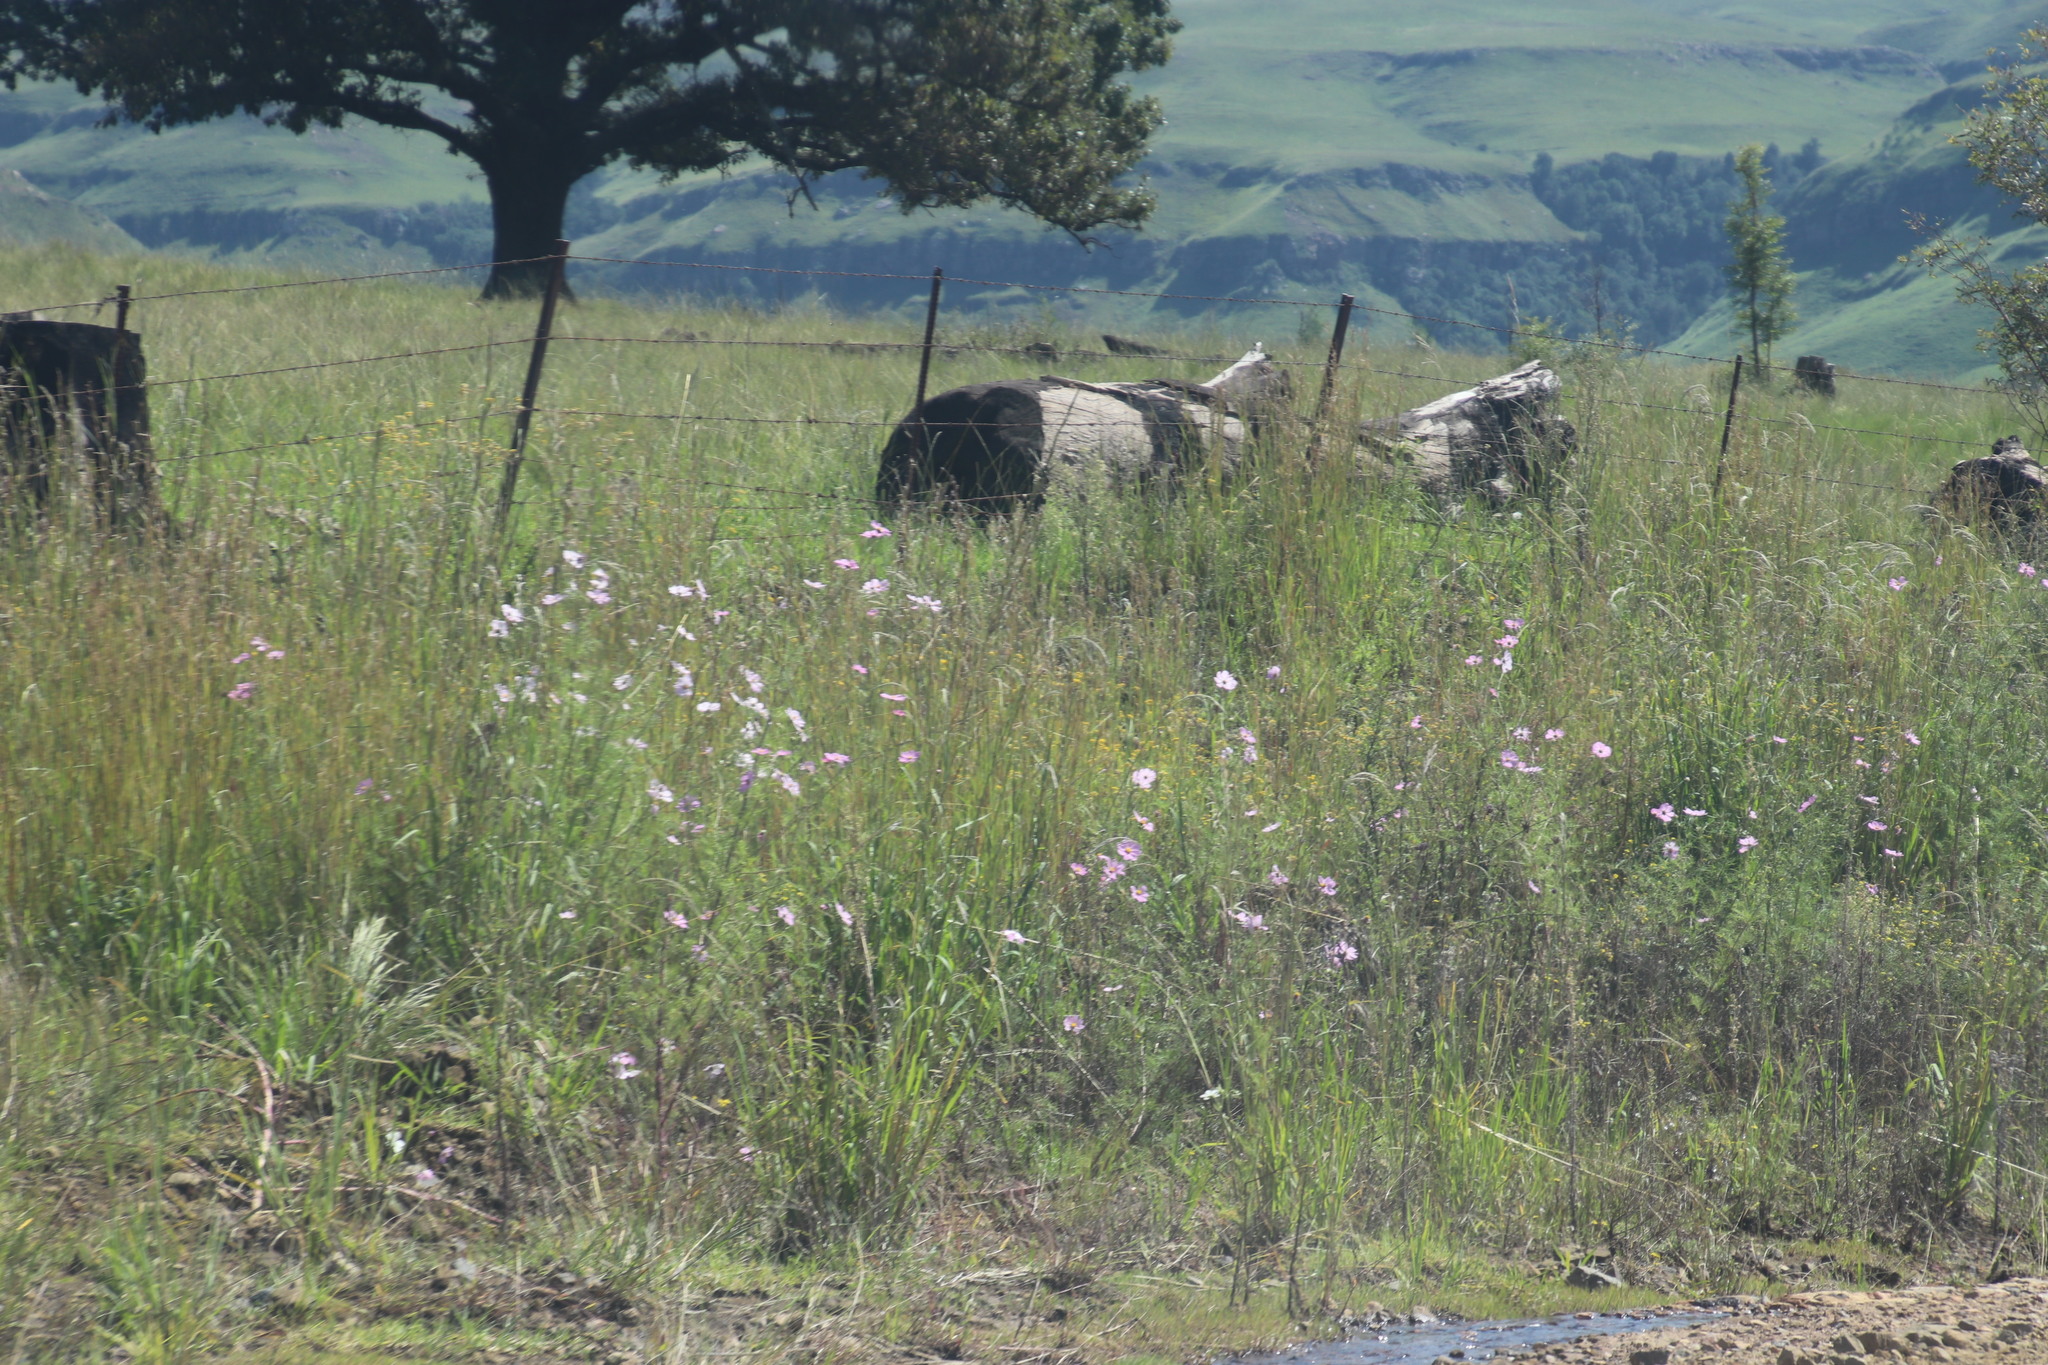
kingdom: Plantae
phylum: Tracheophyta
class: Magnoliopsida
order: Asterales
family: Asteraceae
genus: Cosmos
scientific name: Cosmos bipinnatus
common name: Garden cosmos
